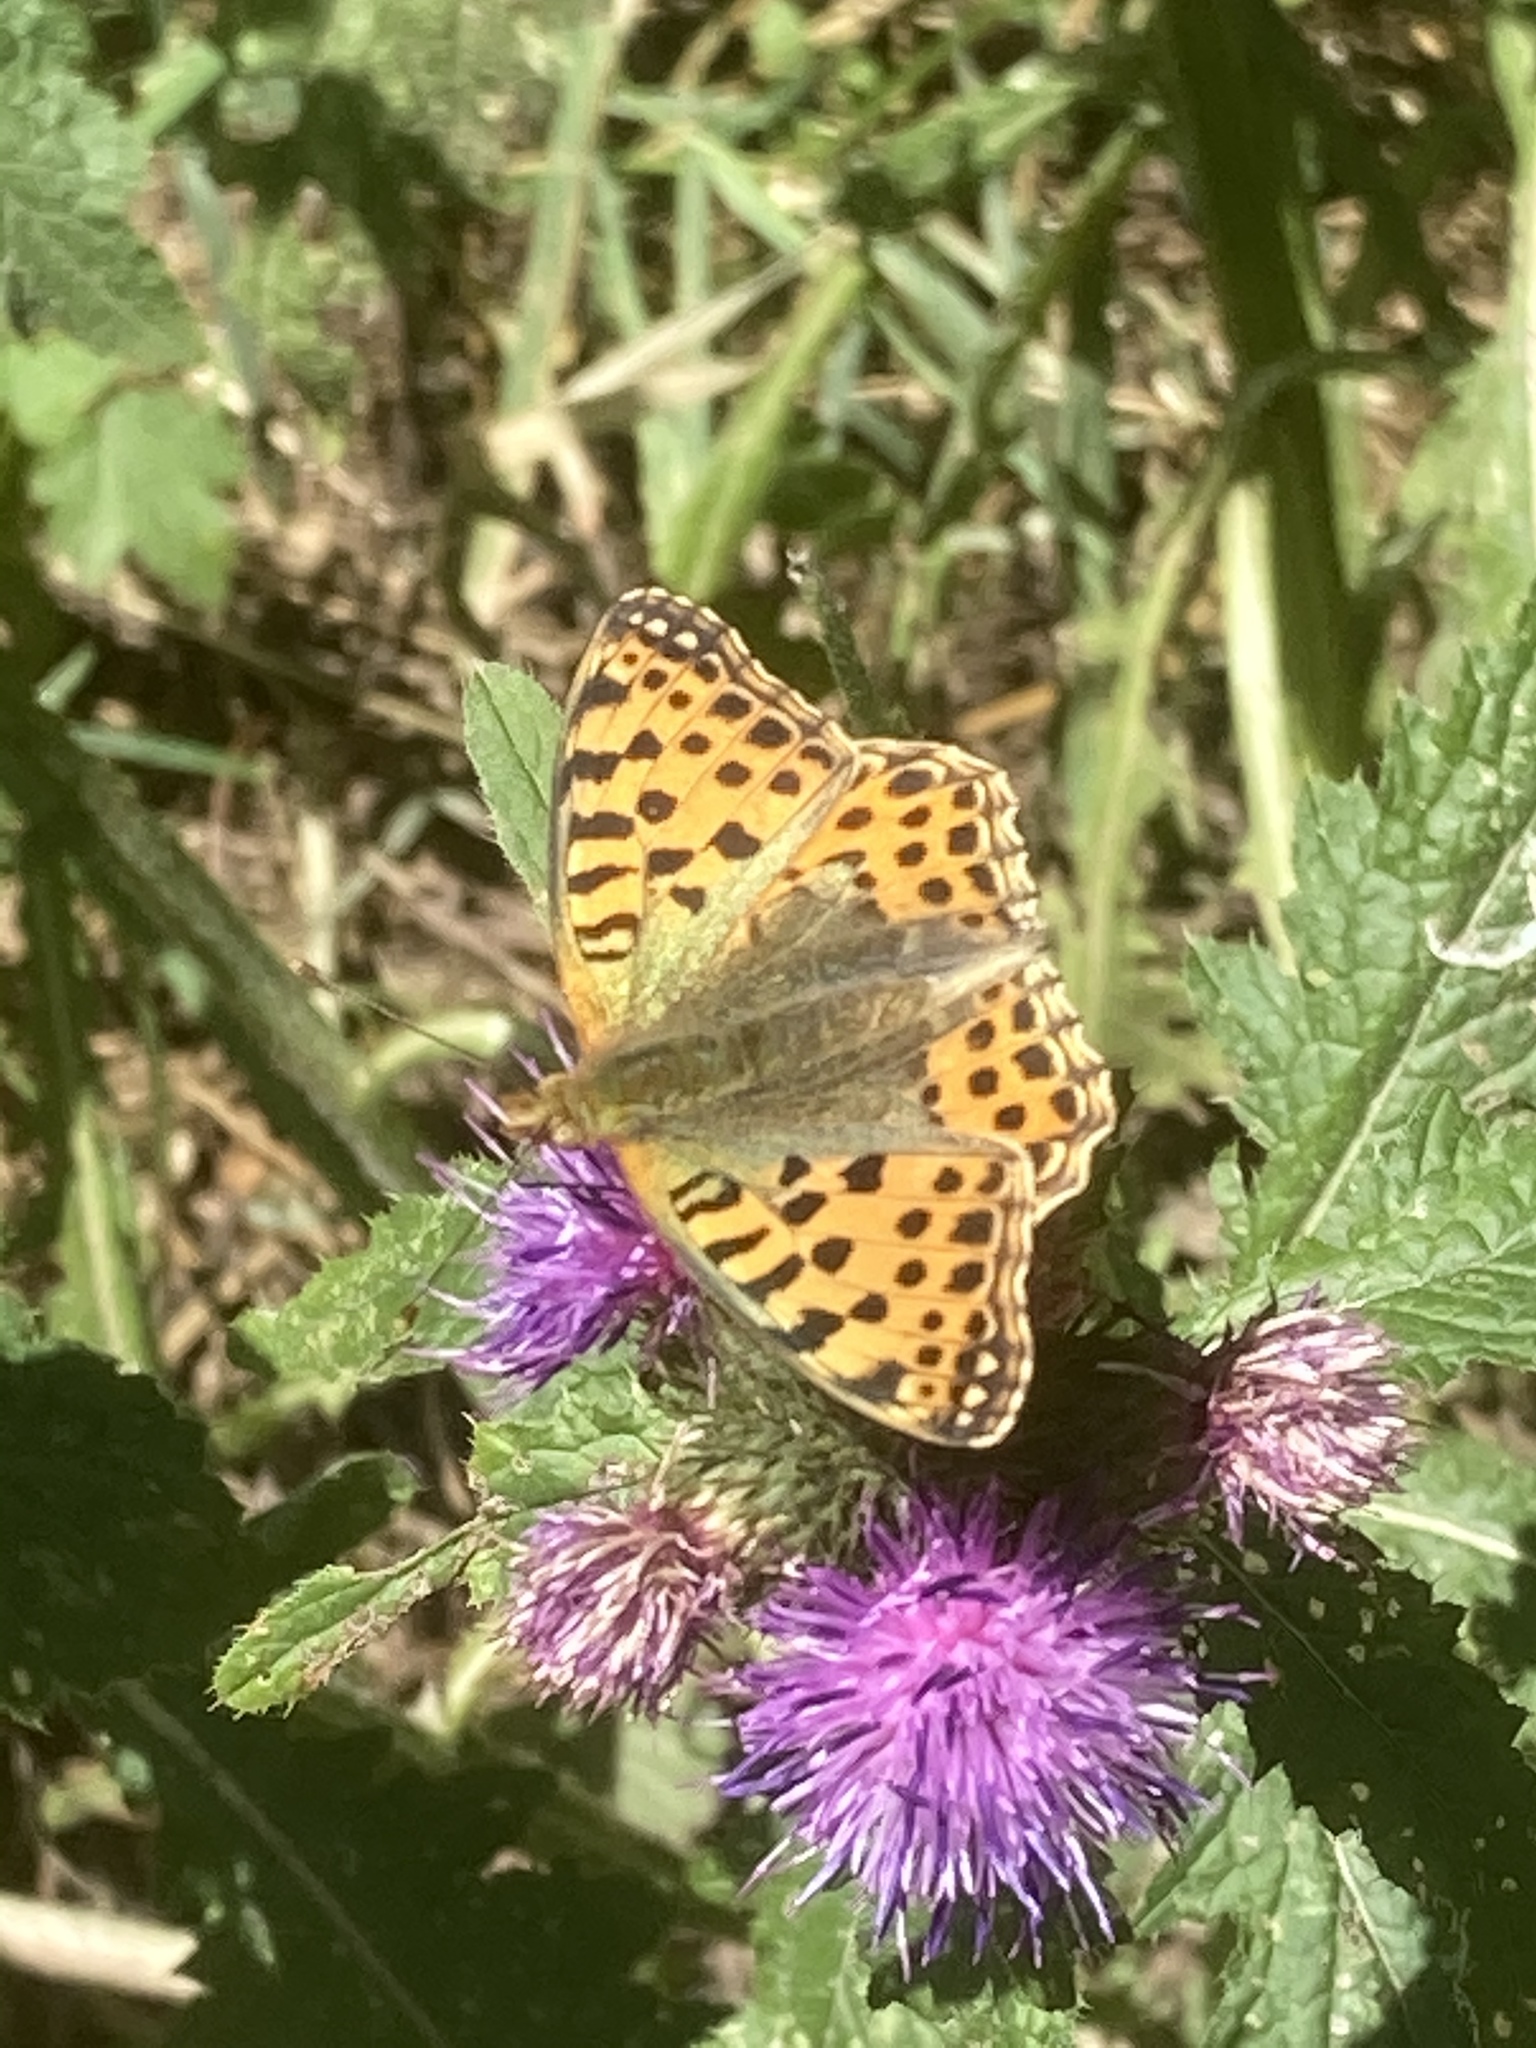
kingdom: Animalia
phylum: Arthropoda
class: Insecta
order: Lepidoptera
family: Nymphalidae
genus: Issoria
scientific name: Issoria lathonia
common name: Queen of spain fritillary
